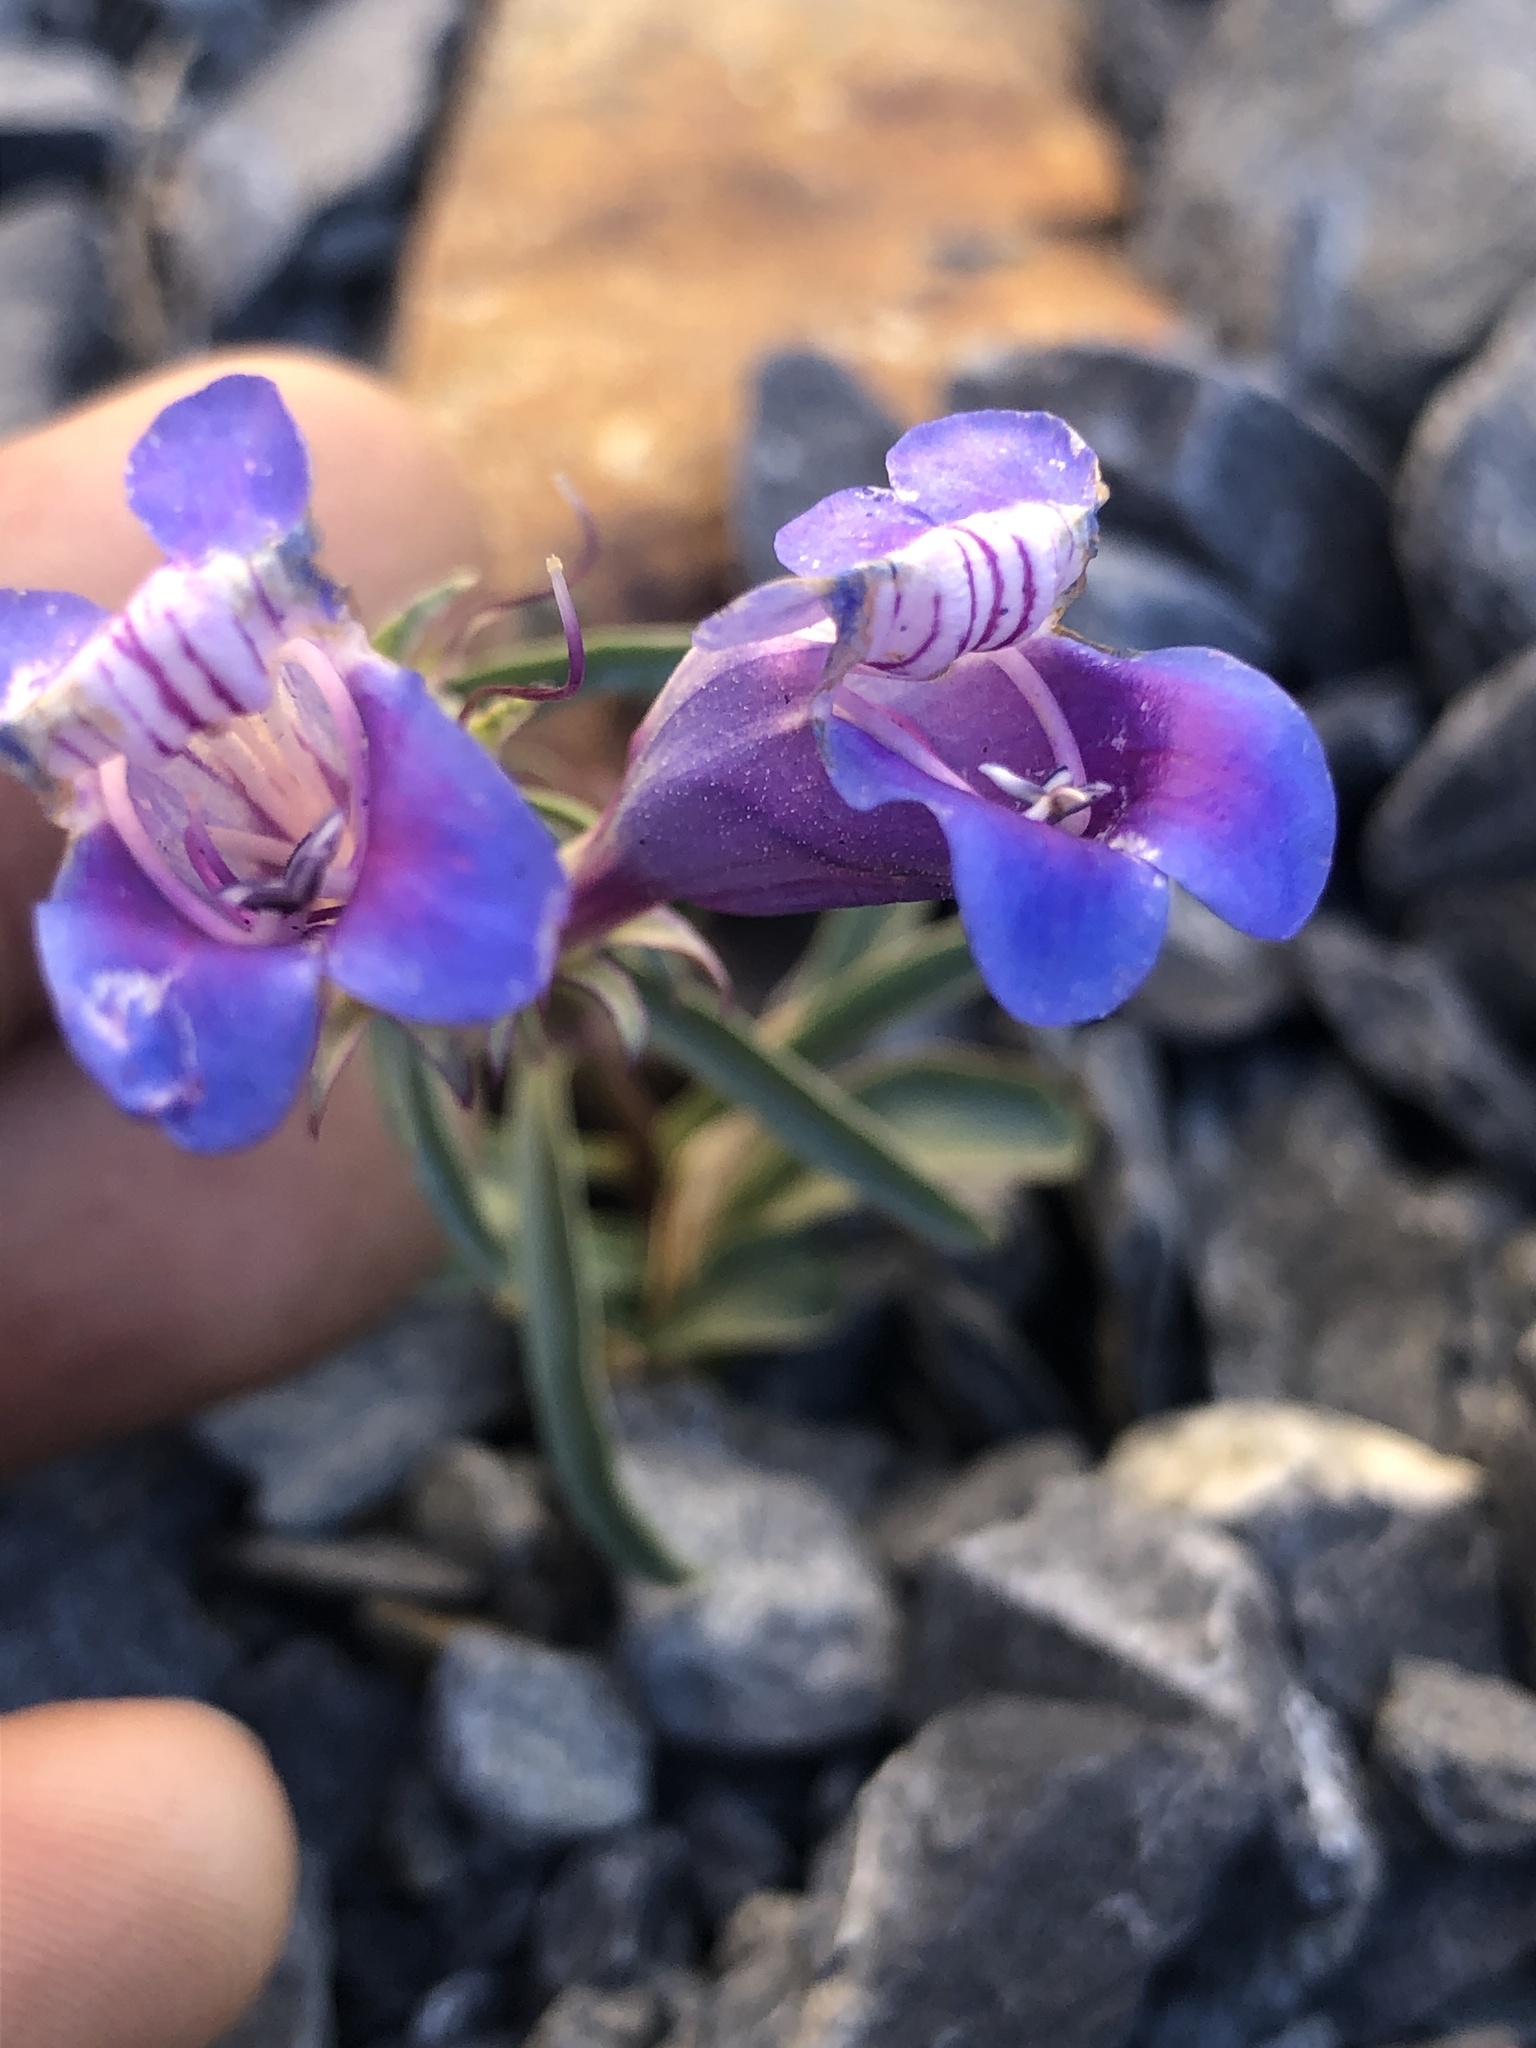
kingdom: Plantae
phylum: Tracheophyta
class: Magnoliopsida
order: Lamiales
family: Plantaginaceae
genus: Penstemon
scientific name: Penstemon speciosus
